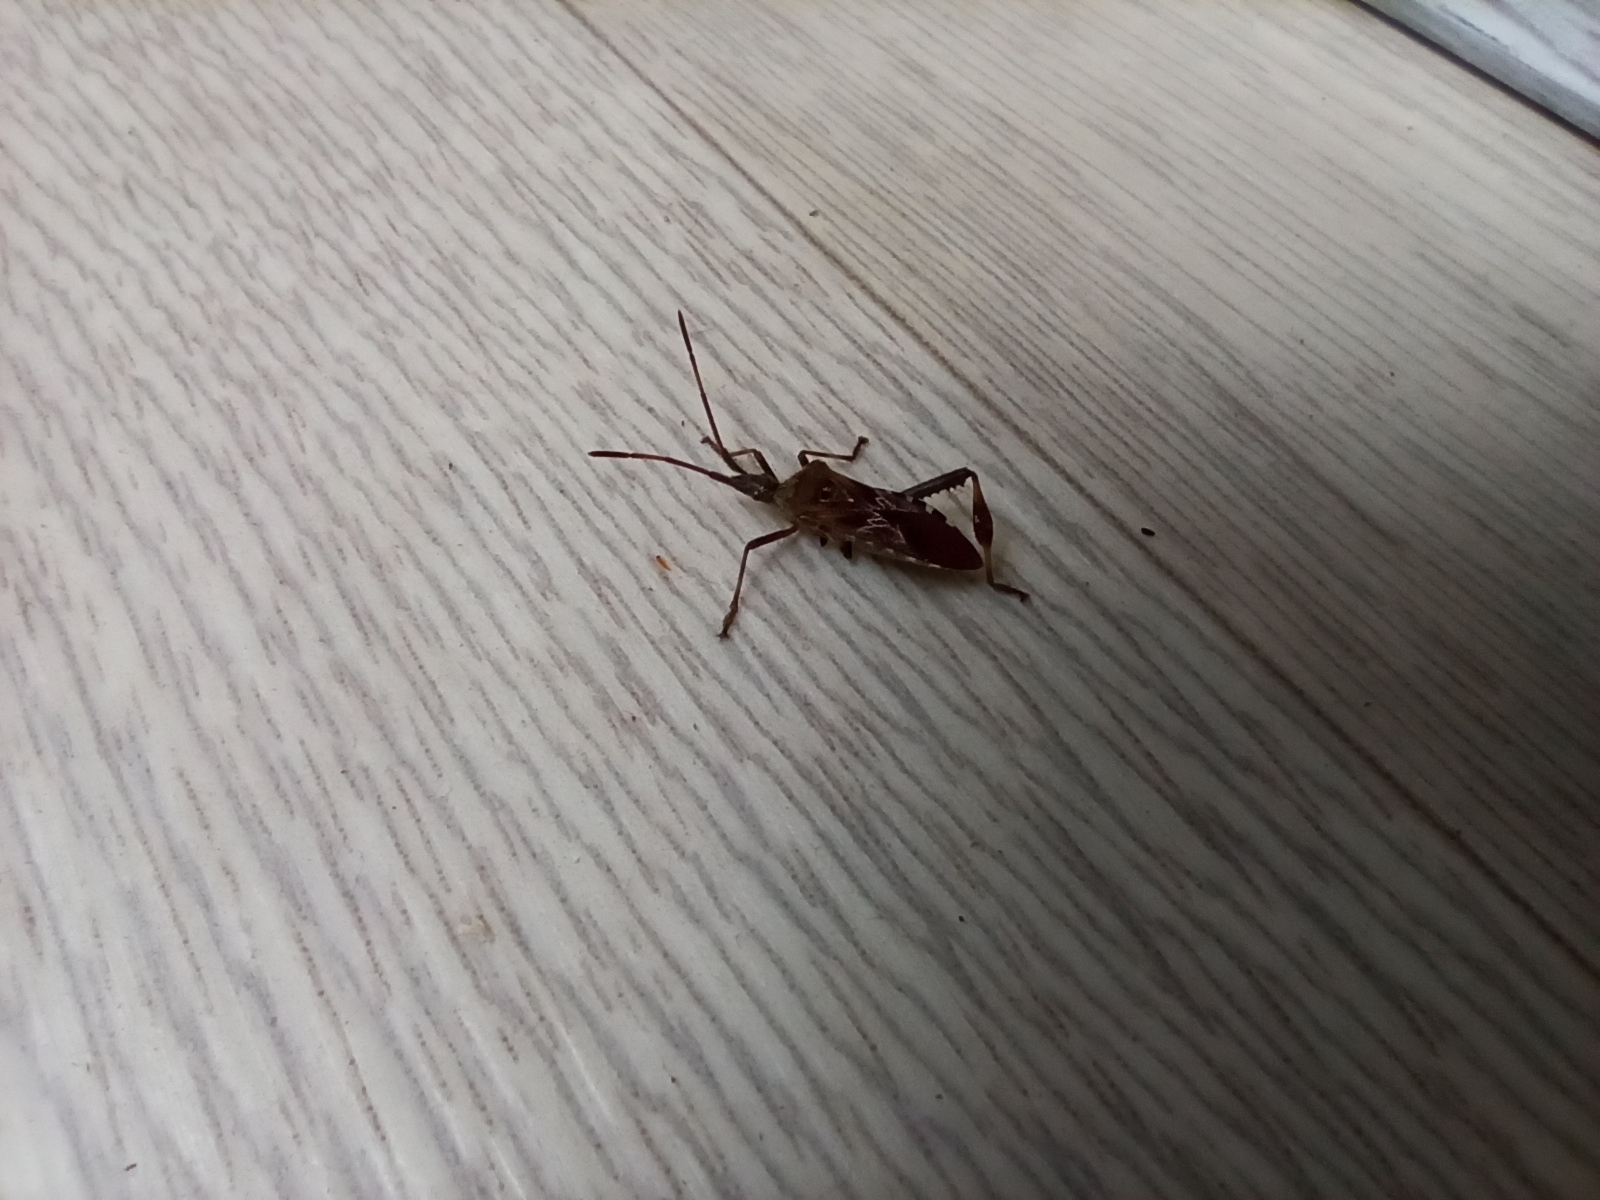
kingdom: Animalia
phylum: Arthropoda
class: Insecta
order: Hemiptera
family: Coreidae
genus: Leptoglossus
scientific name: Leptoglossus occidentalis
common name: Western conifer-seed bug
